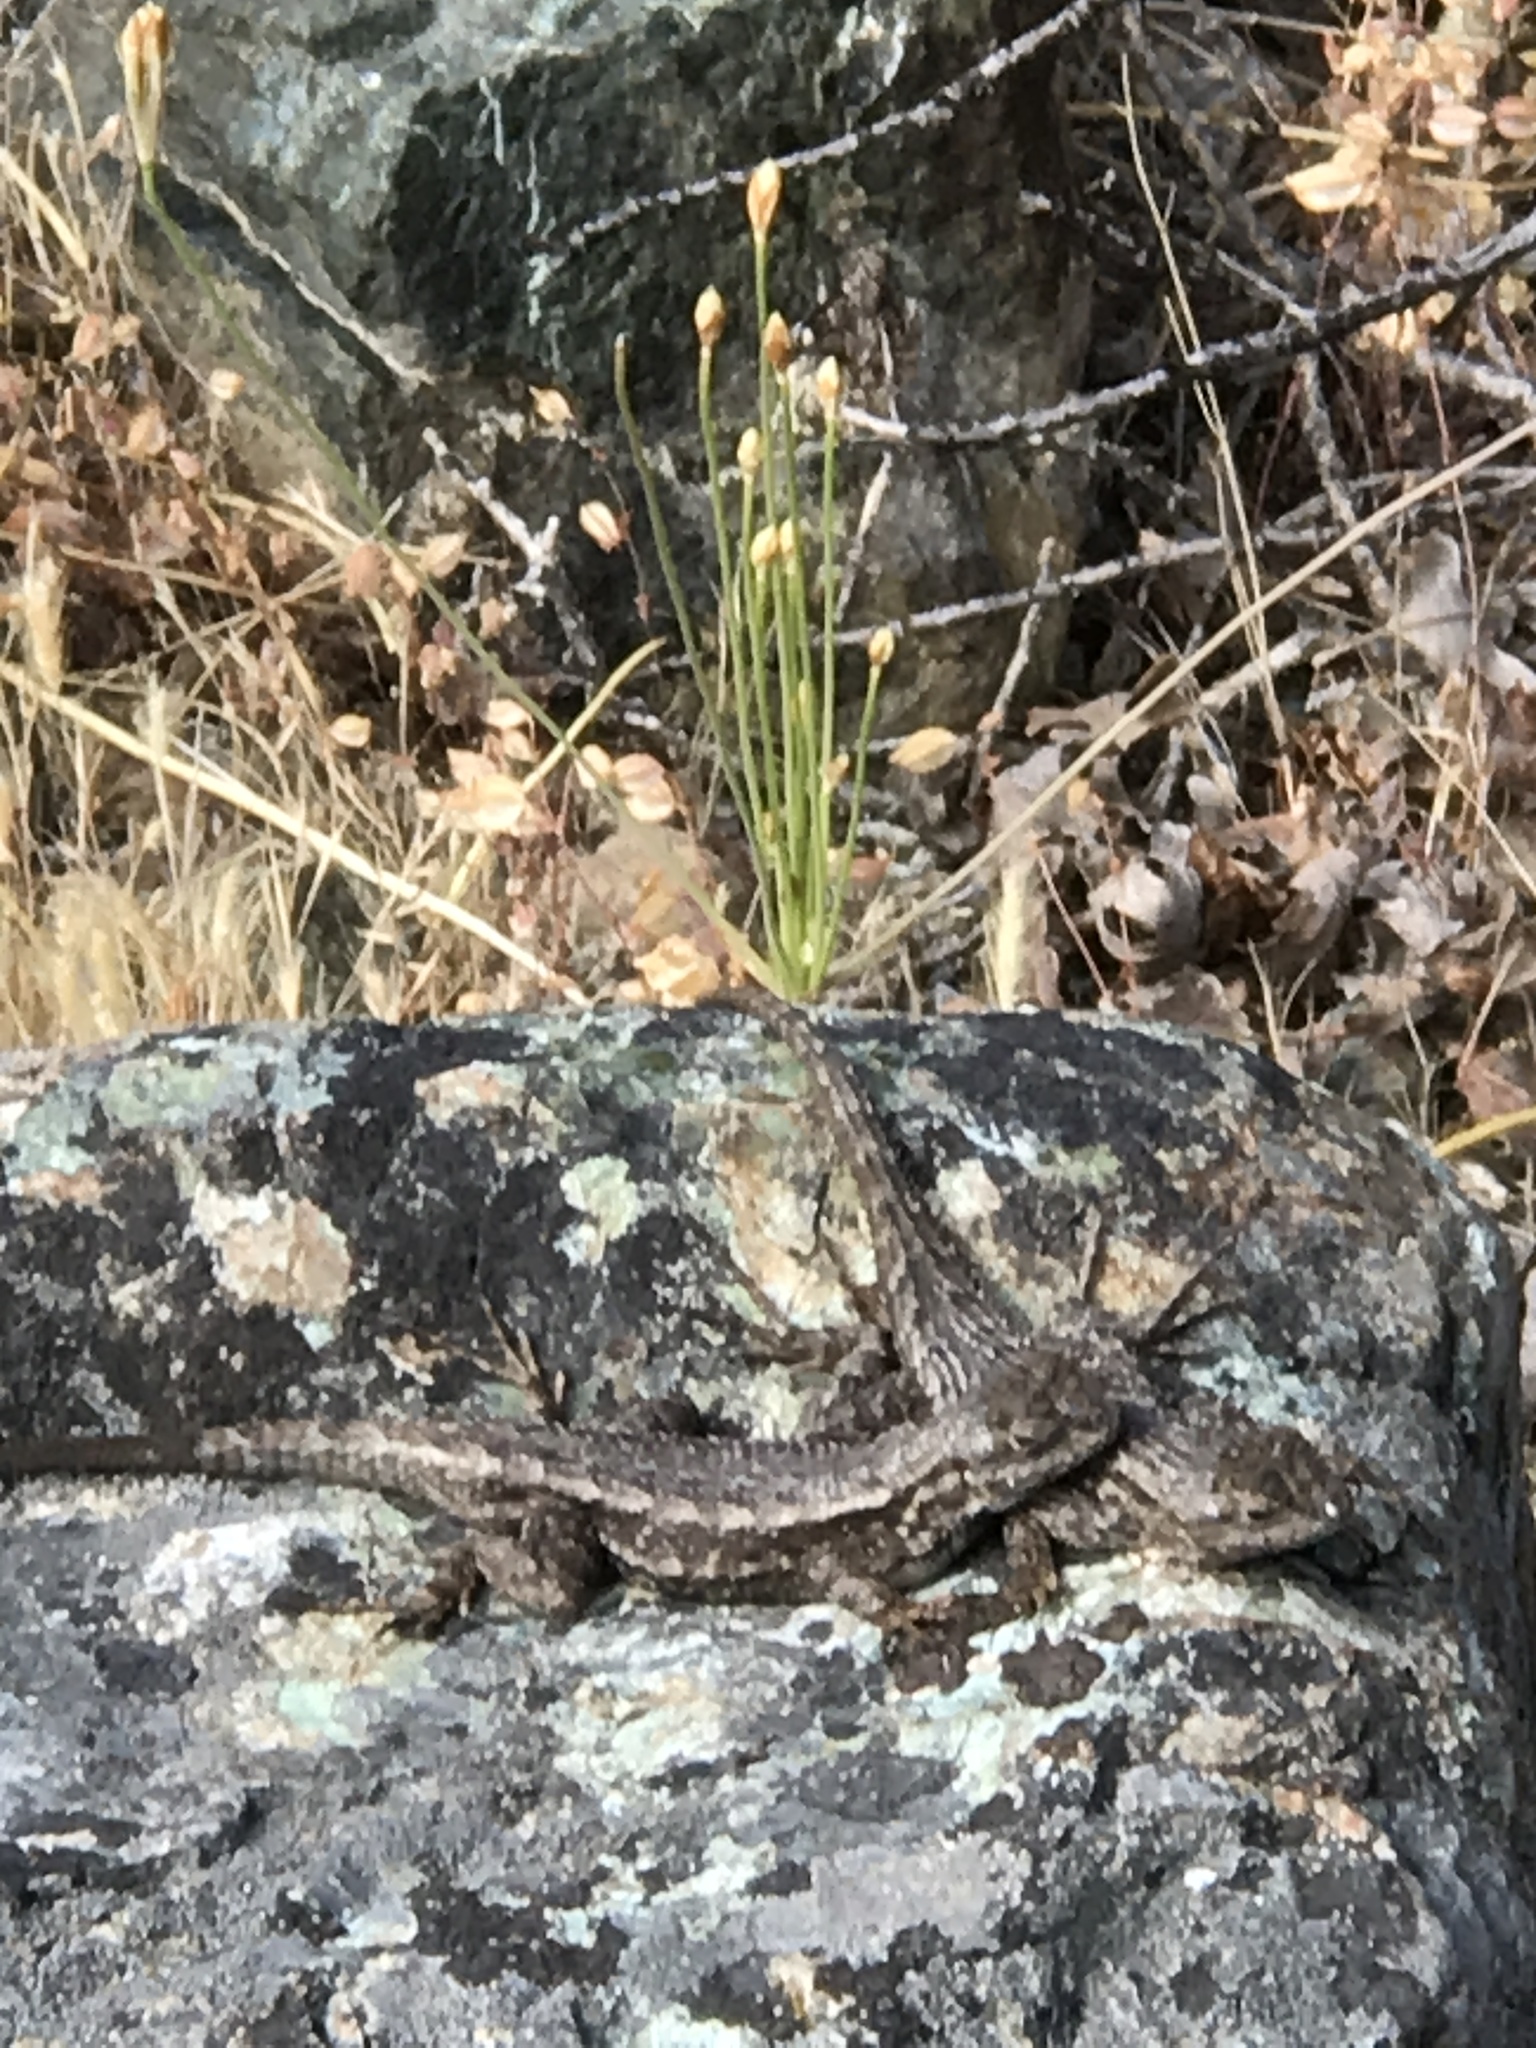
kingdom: Animalia
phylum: Chordata
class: Squamata
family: Phrynosomatidae
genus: Sceloporus
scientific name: Sceloporus occidentalis
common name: Western fence lizard
